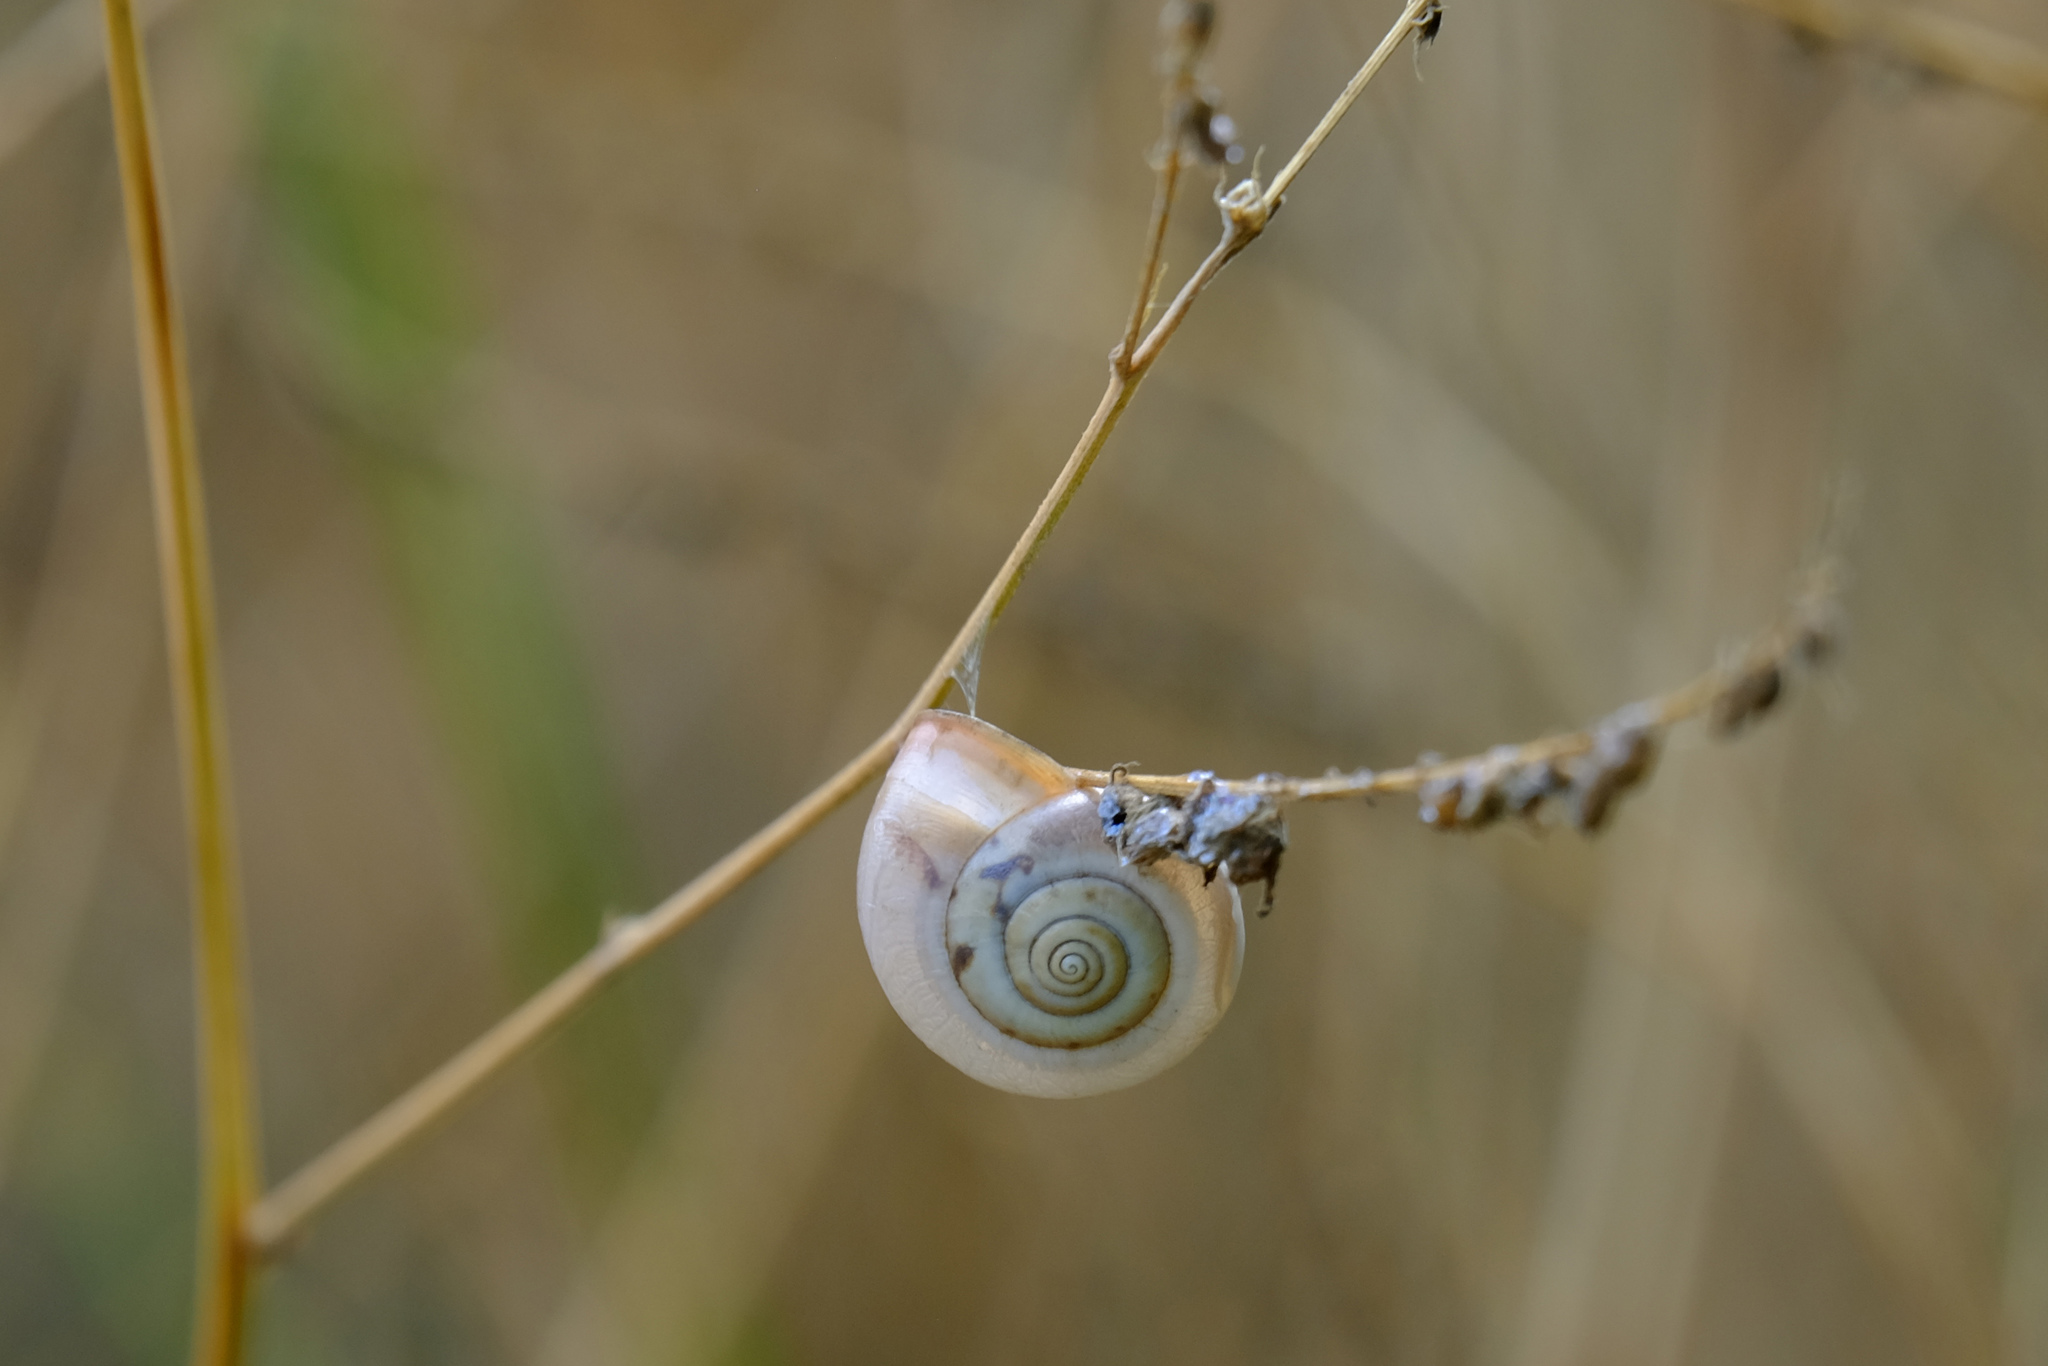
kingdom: Animalia
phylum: Mollusca
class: Gastropoda
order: Stylommatophora
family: Hygromiidae
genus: Monacha
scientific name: Monacha cartusiana
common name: Carthusian snail
